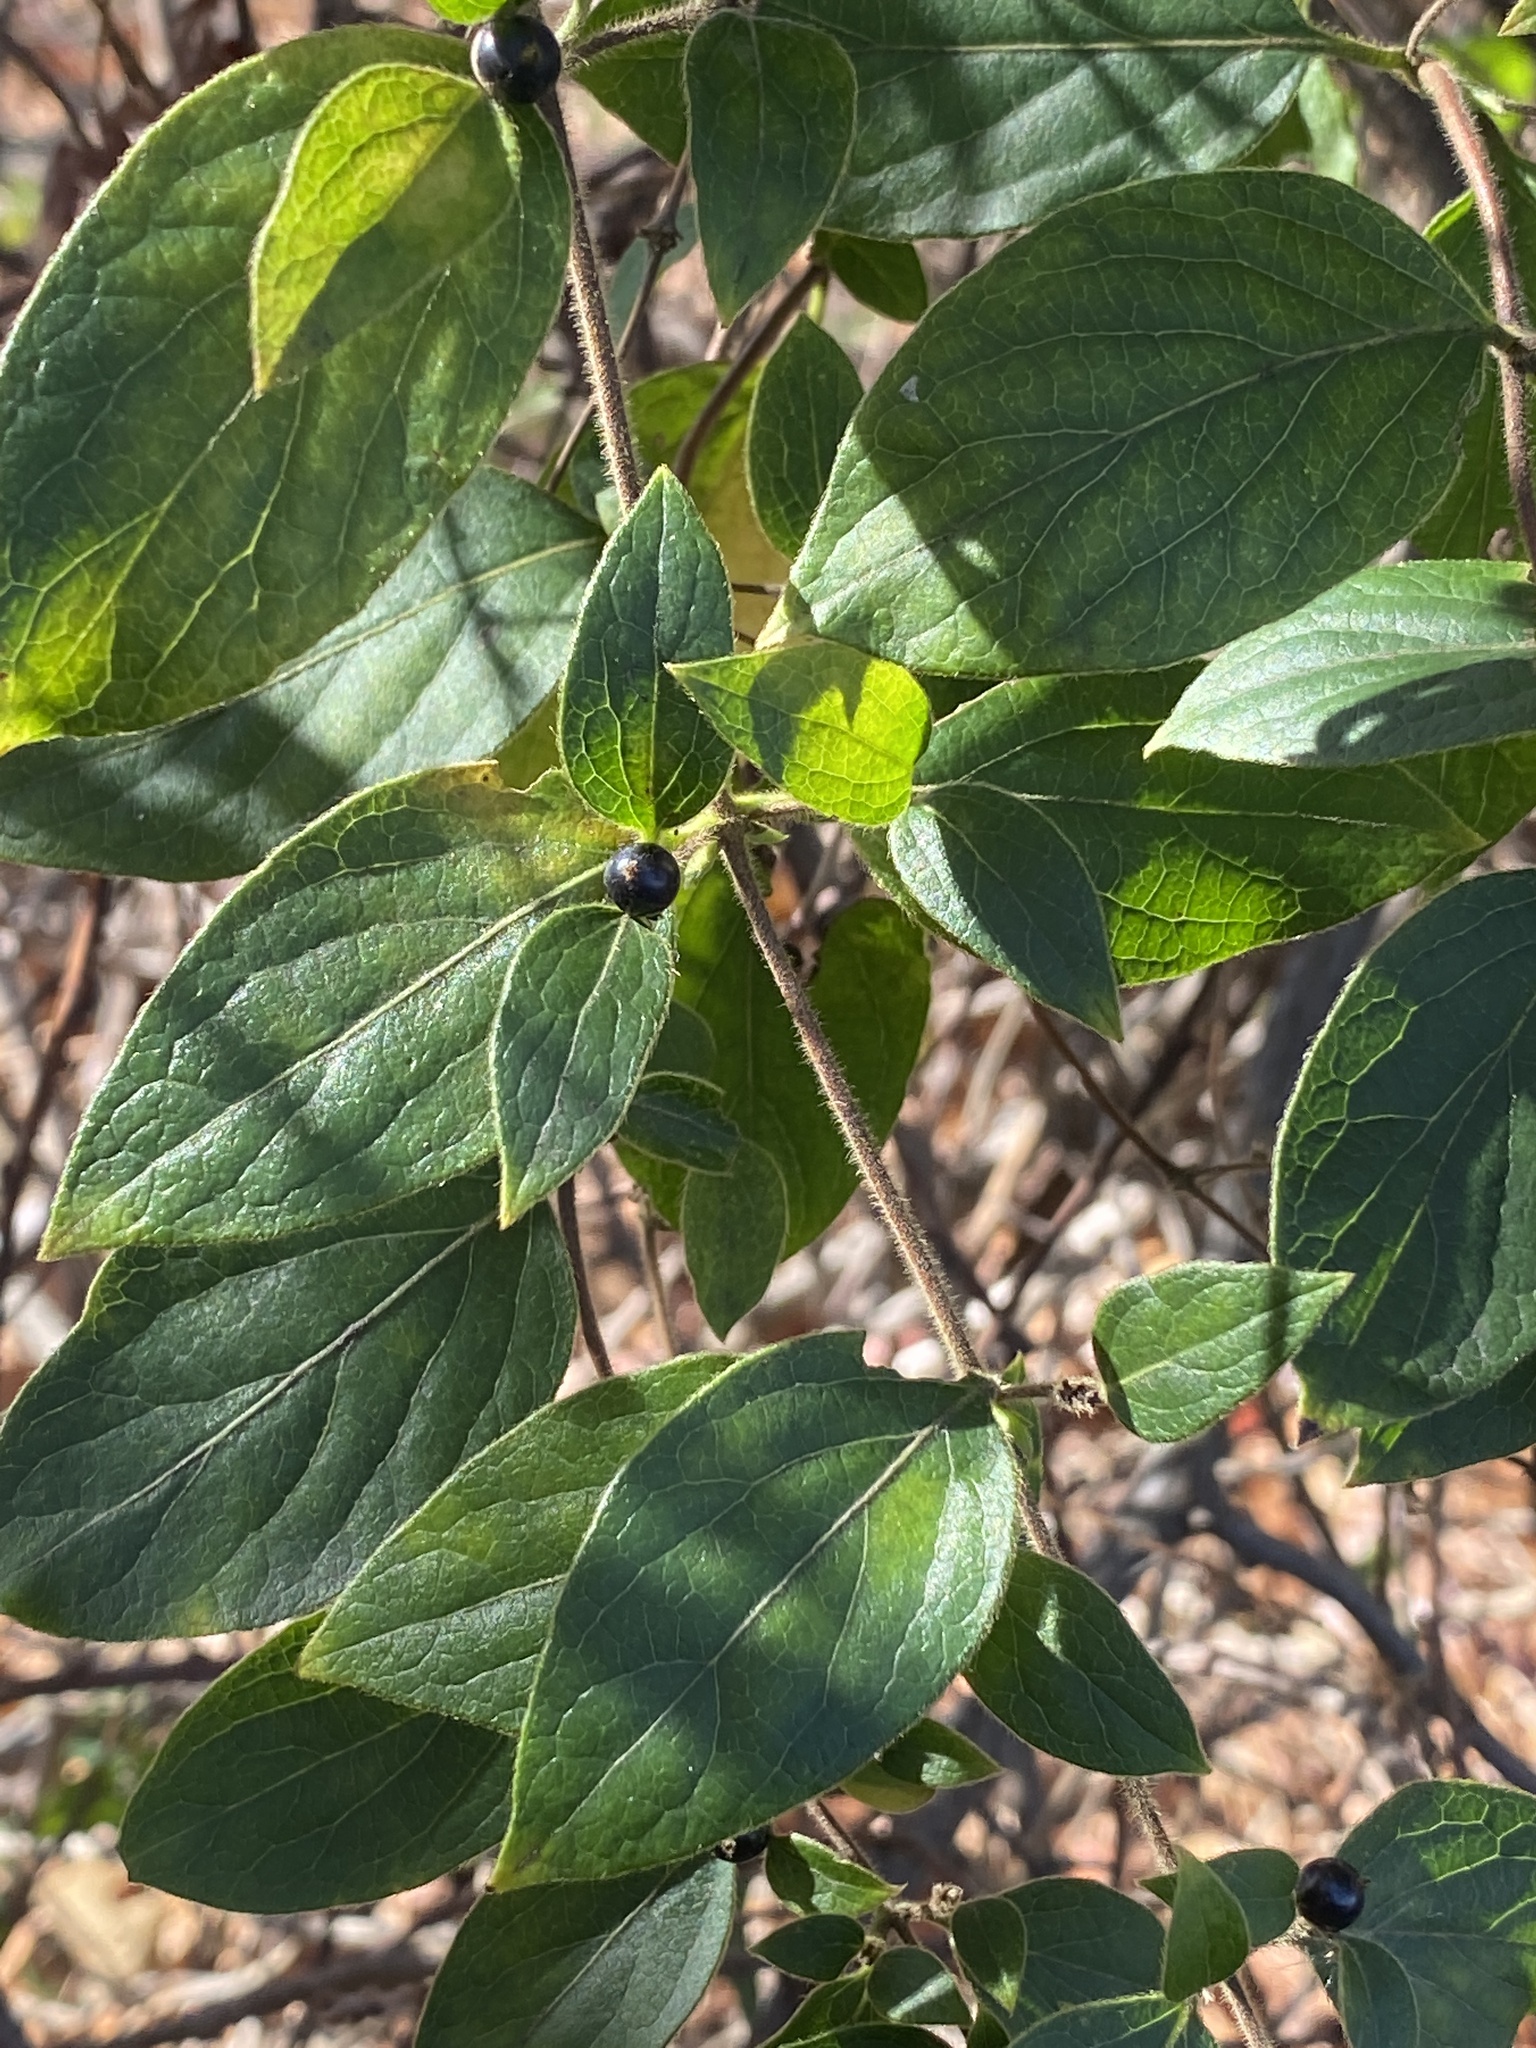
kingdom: Plantae
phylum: Tracheophyta
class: Magnoliopsida
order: Dipsacales
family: Caprifoliaceae
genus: Lonicera
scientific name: Lonicera japonica
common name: Japanese honeysuckle
